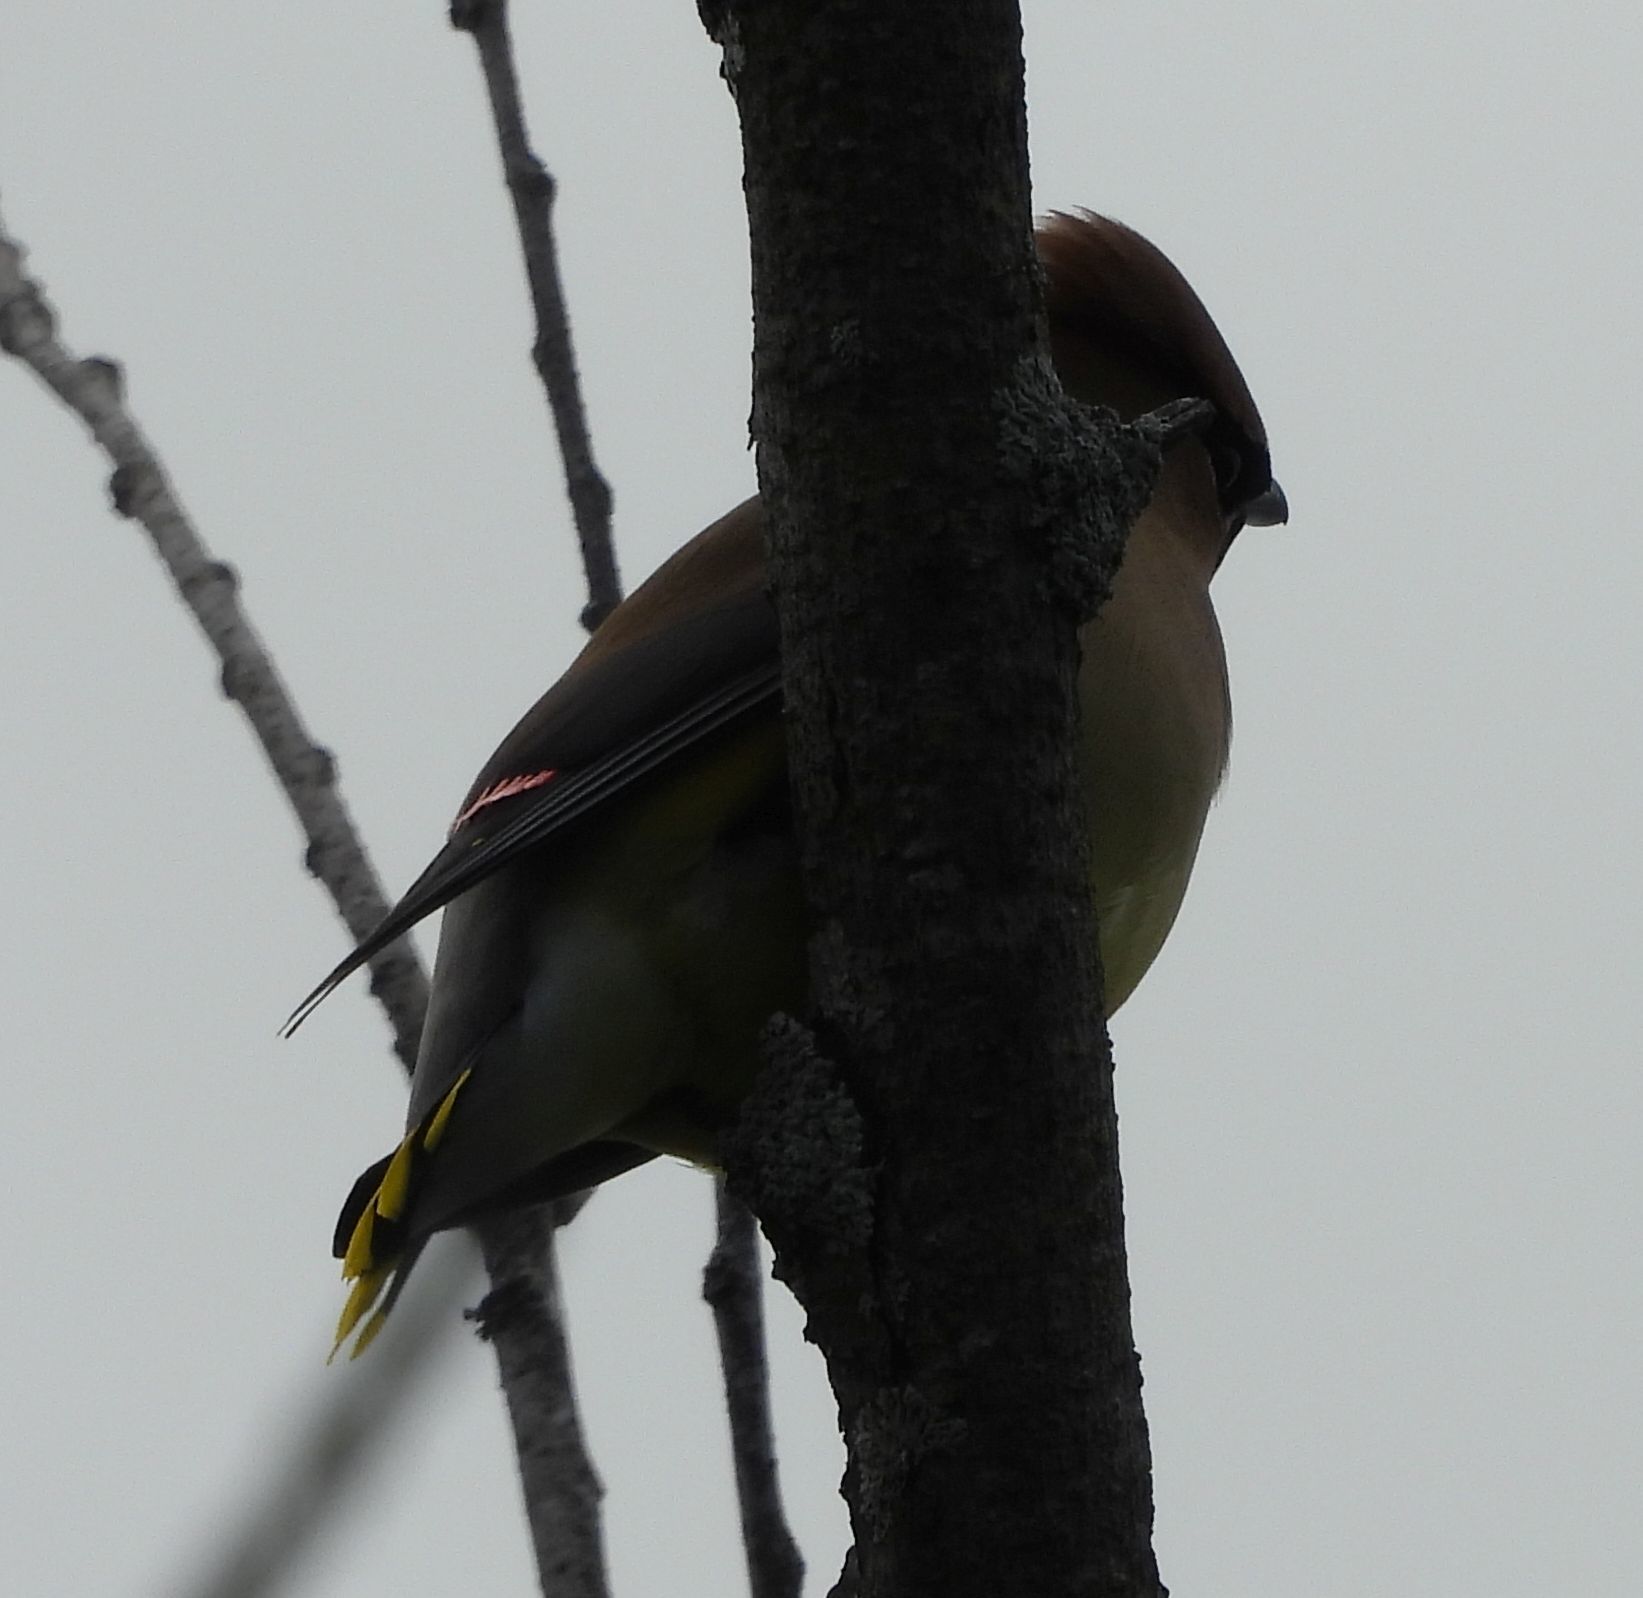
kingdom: Animalia
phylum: Chordata
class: Aves
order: Passeriformes
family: Bombycillidae
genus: Bombycilla
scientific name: Bombycilla cedrorum
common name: Cedar waxwing
